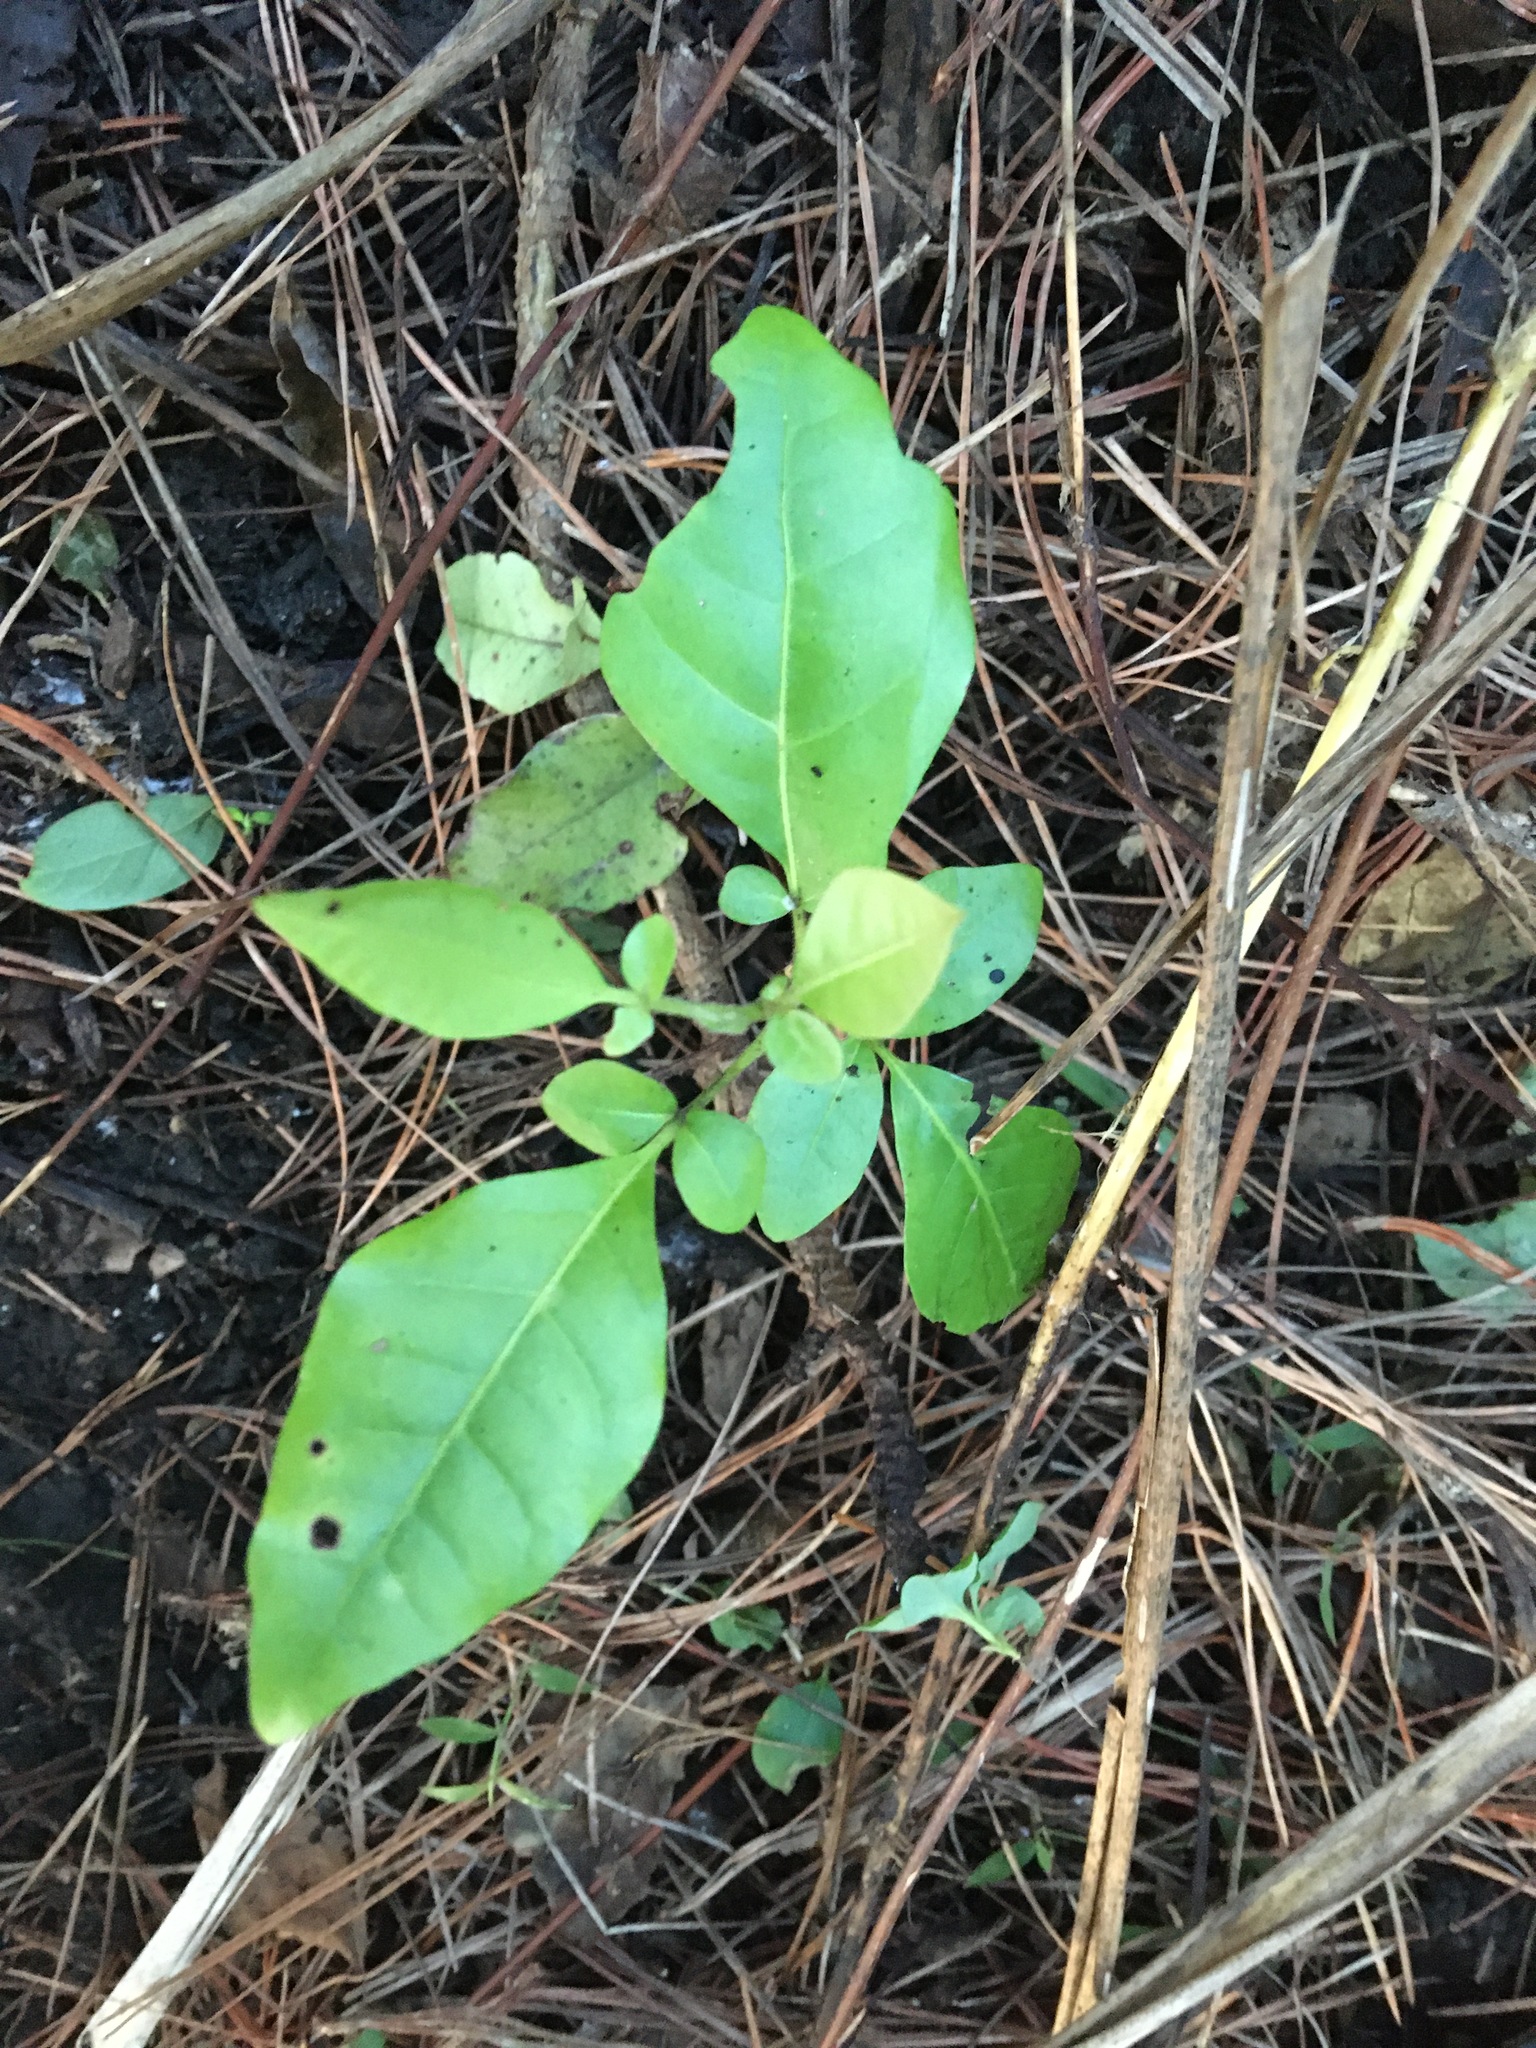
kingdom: Plantae
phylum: Tracheophyta
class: Magnoliopsida
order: Sapindales
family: Meliaceae
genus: Didymocheton
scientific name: Didymocheton spectabilis
